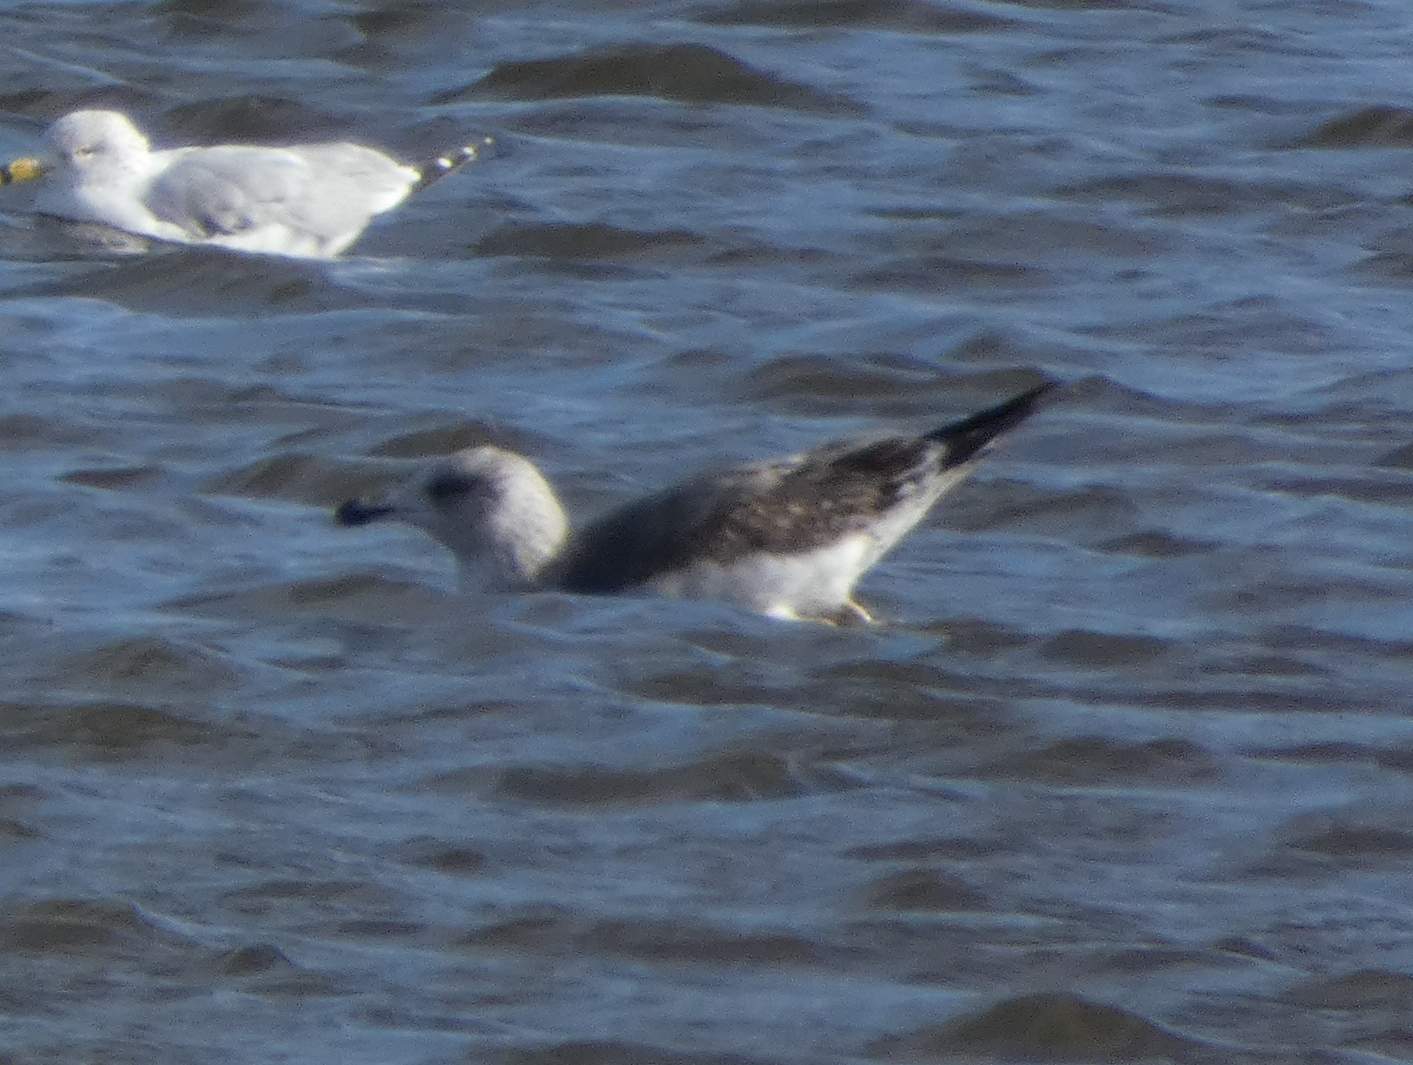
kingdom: Animalia
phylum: Chordata
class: Aves
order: Charadriiformes
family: Laridae
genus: Larus
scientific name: Larus fuscus
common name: Lesser black-backed gull
